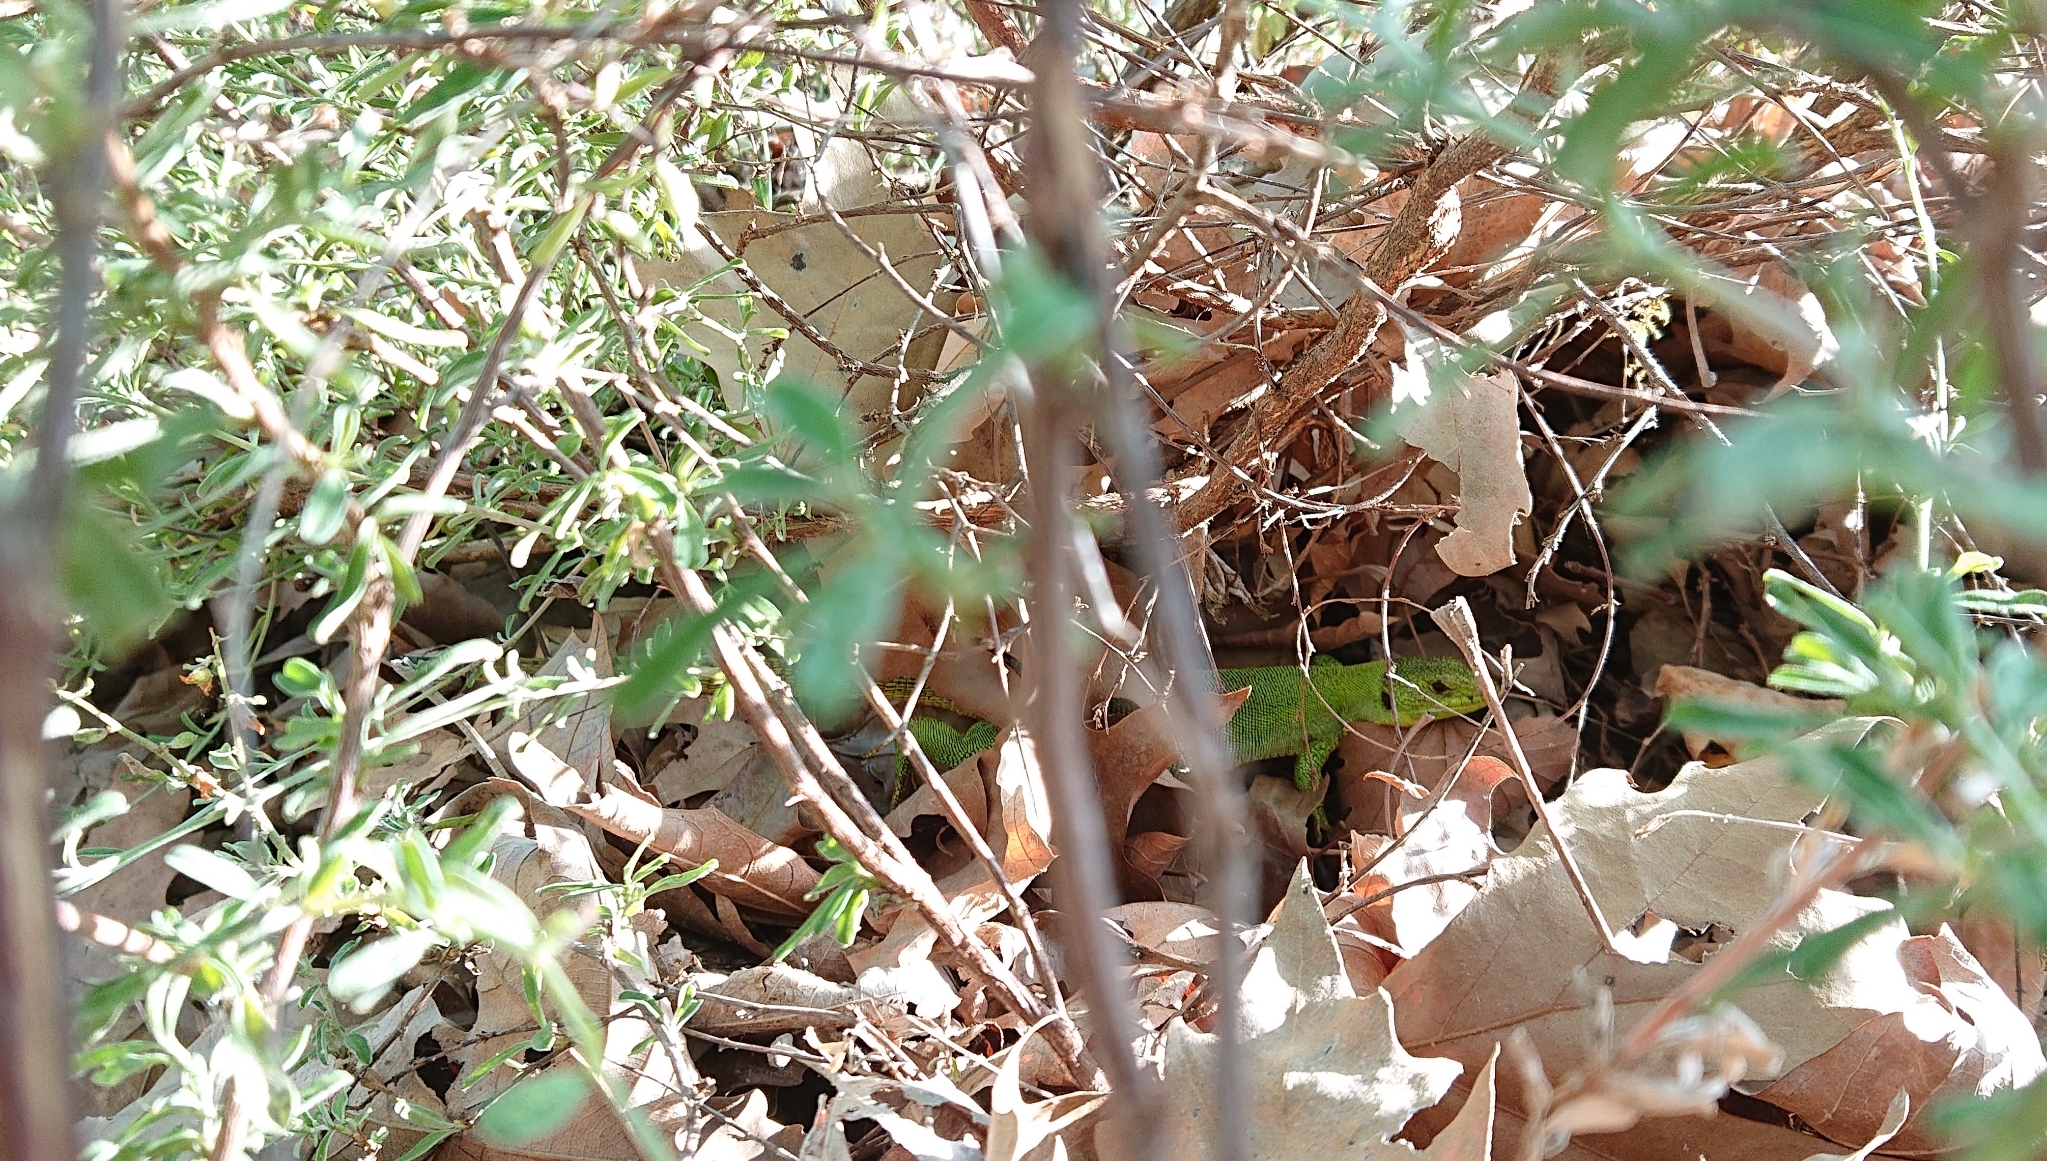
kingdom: Animalia
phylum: Chordata
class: Squamata
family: Lacertidae
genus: Lacerta
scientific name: Lacerta trilineata
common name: Balkan green lizard
